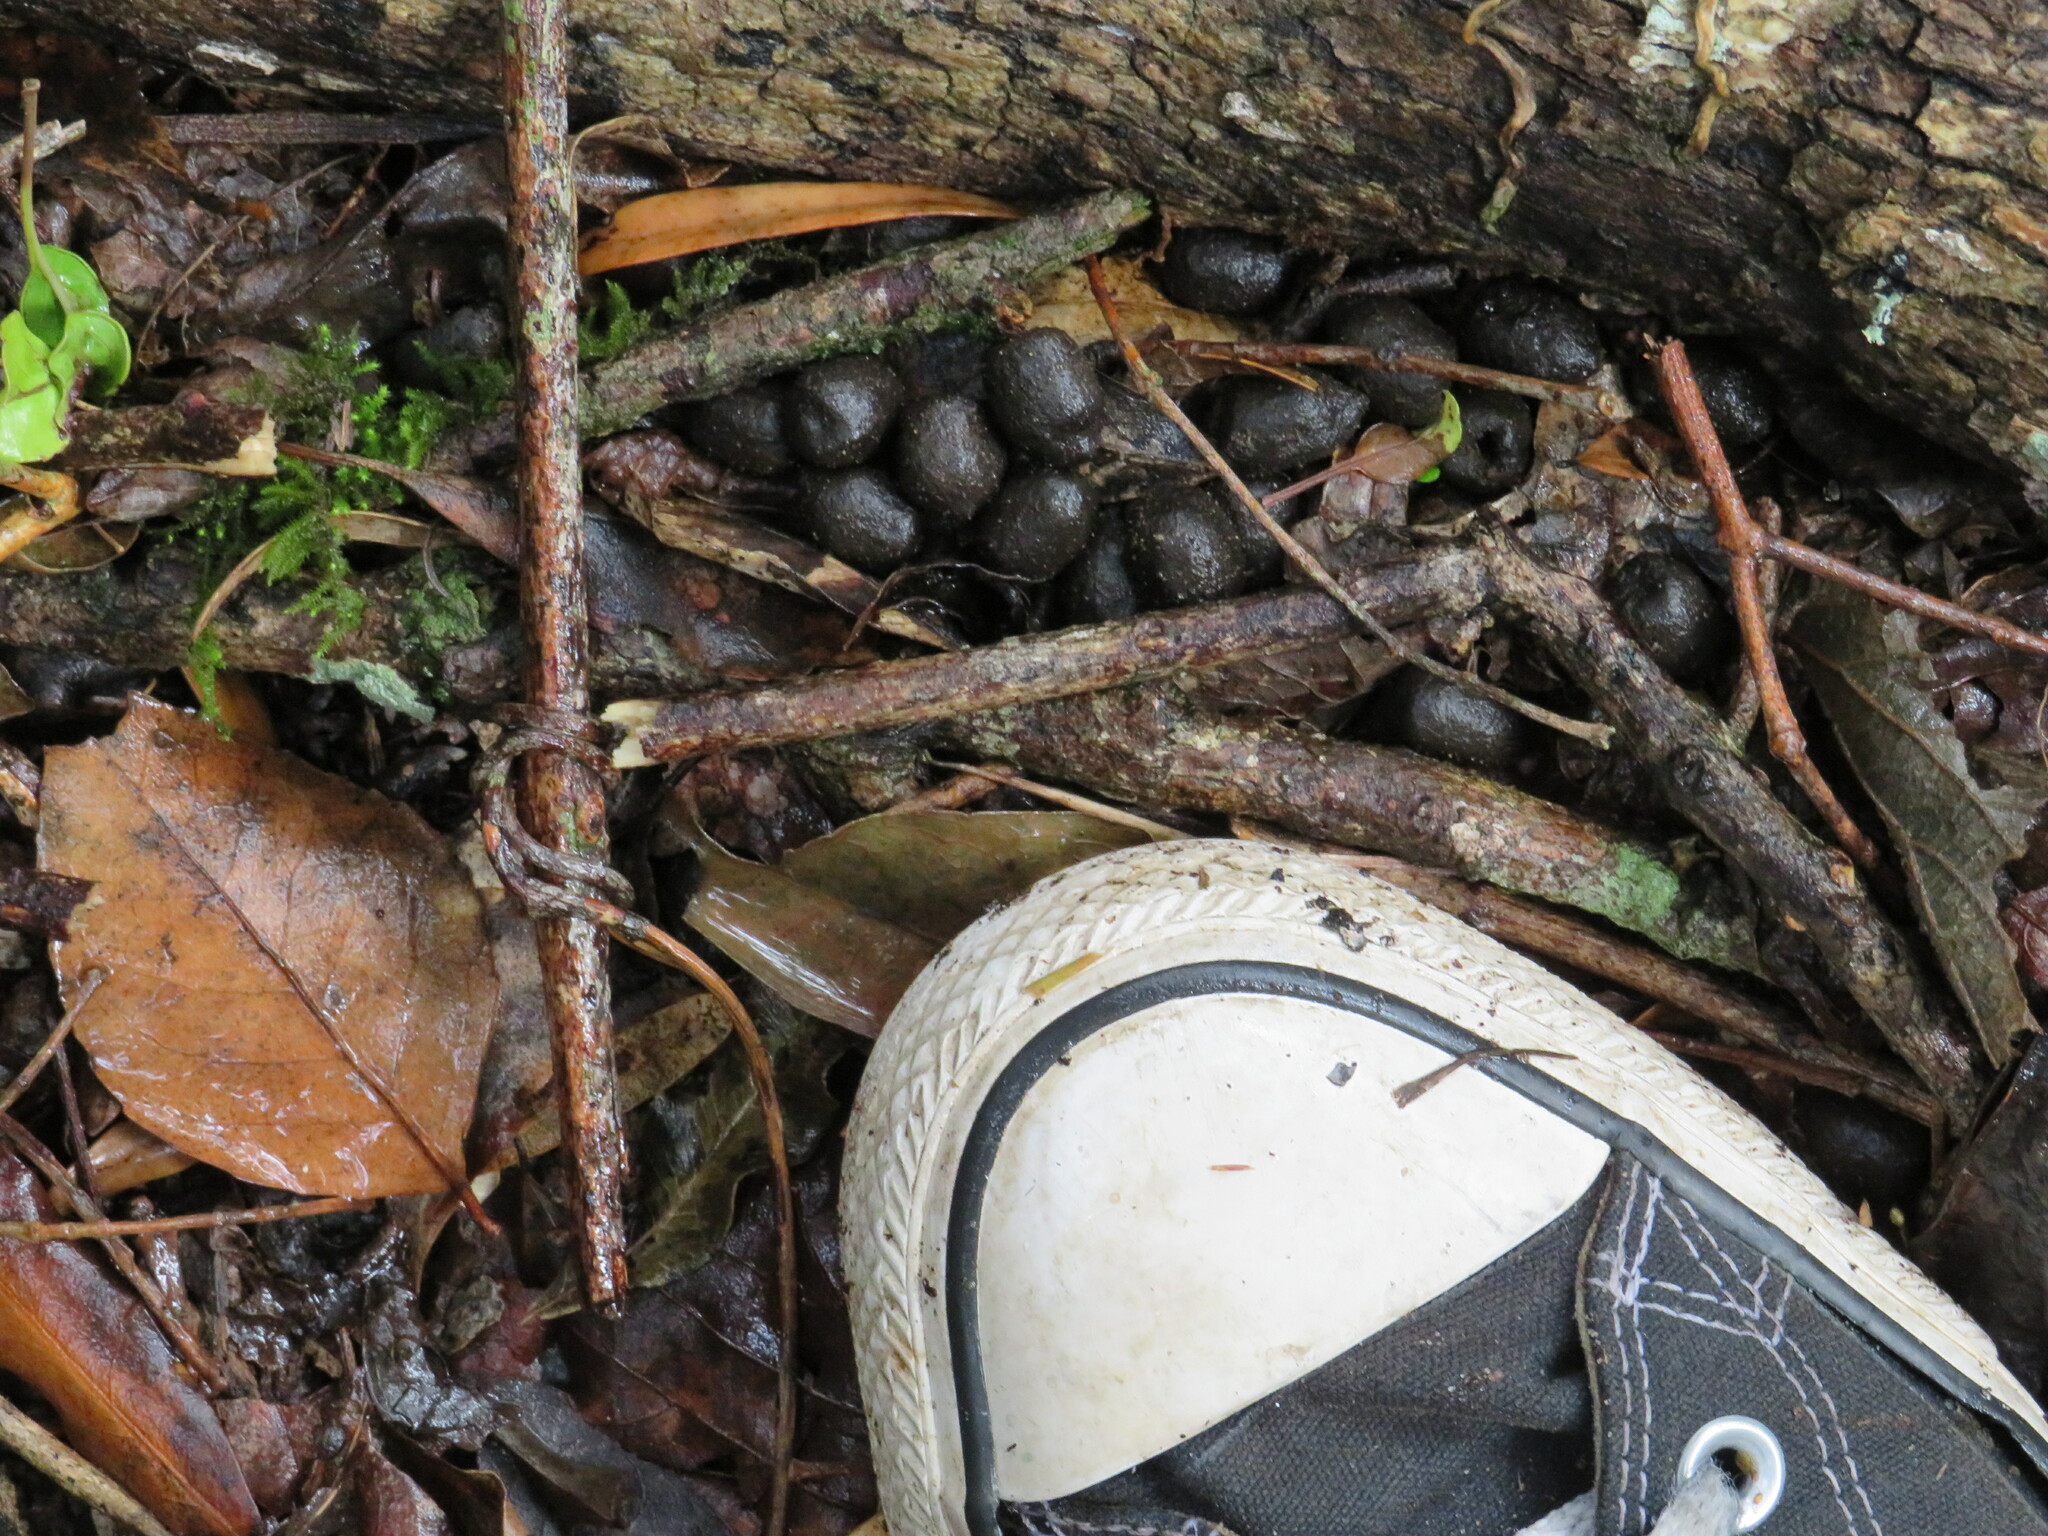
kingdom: Animalia
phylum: Chordata
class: Mammalia
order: Artiodactyla
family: Bovidae
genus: Tragelaphus
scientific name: Tragelaphus scriptus
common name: Bushbuck
